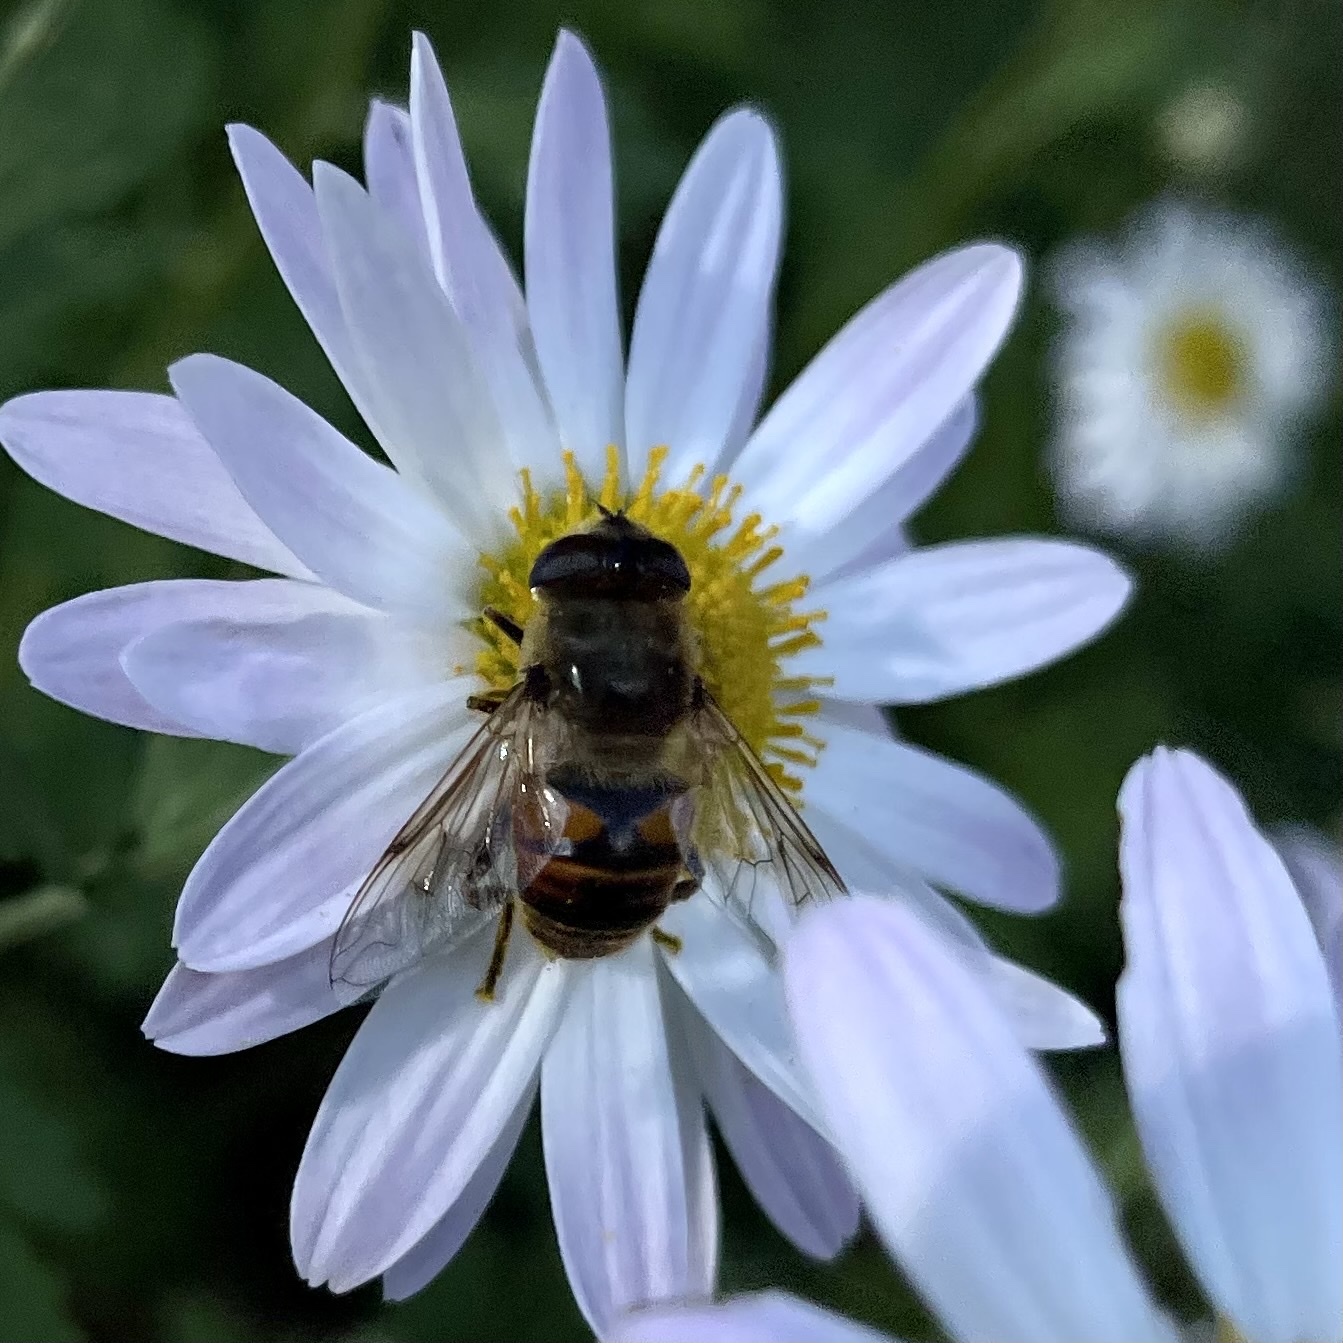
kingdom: Animalia
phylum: Arthropoda
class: Insecta
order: Diptera
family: Syrphidae
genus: Eristalis
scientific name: Eristalis tenax
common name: Drone fly
